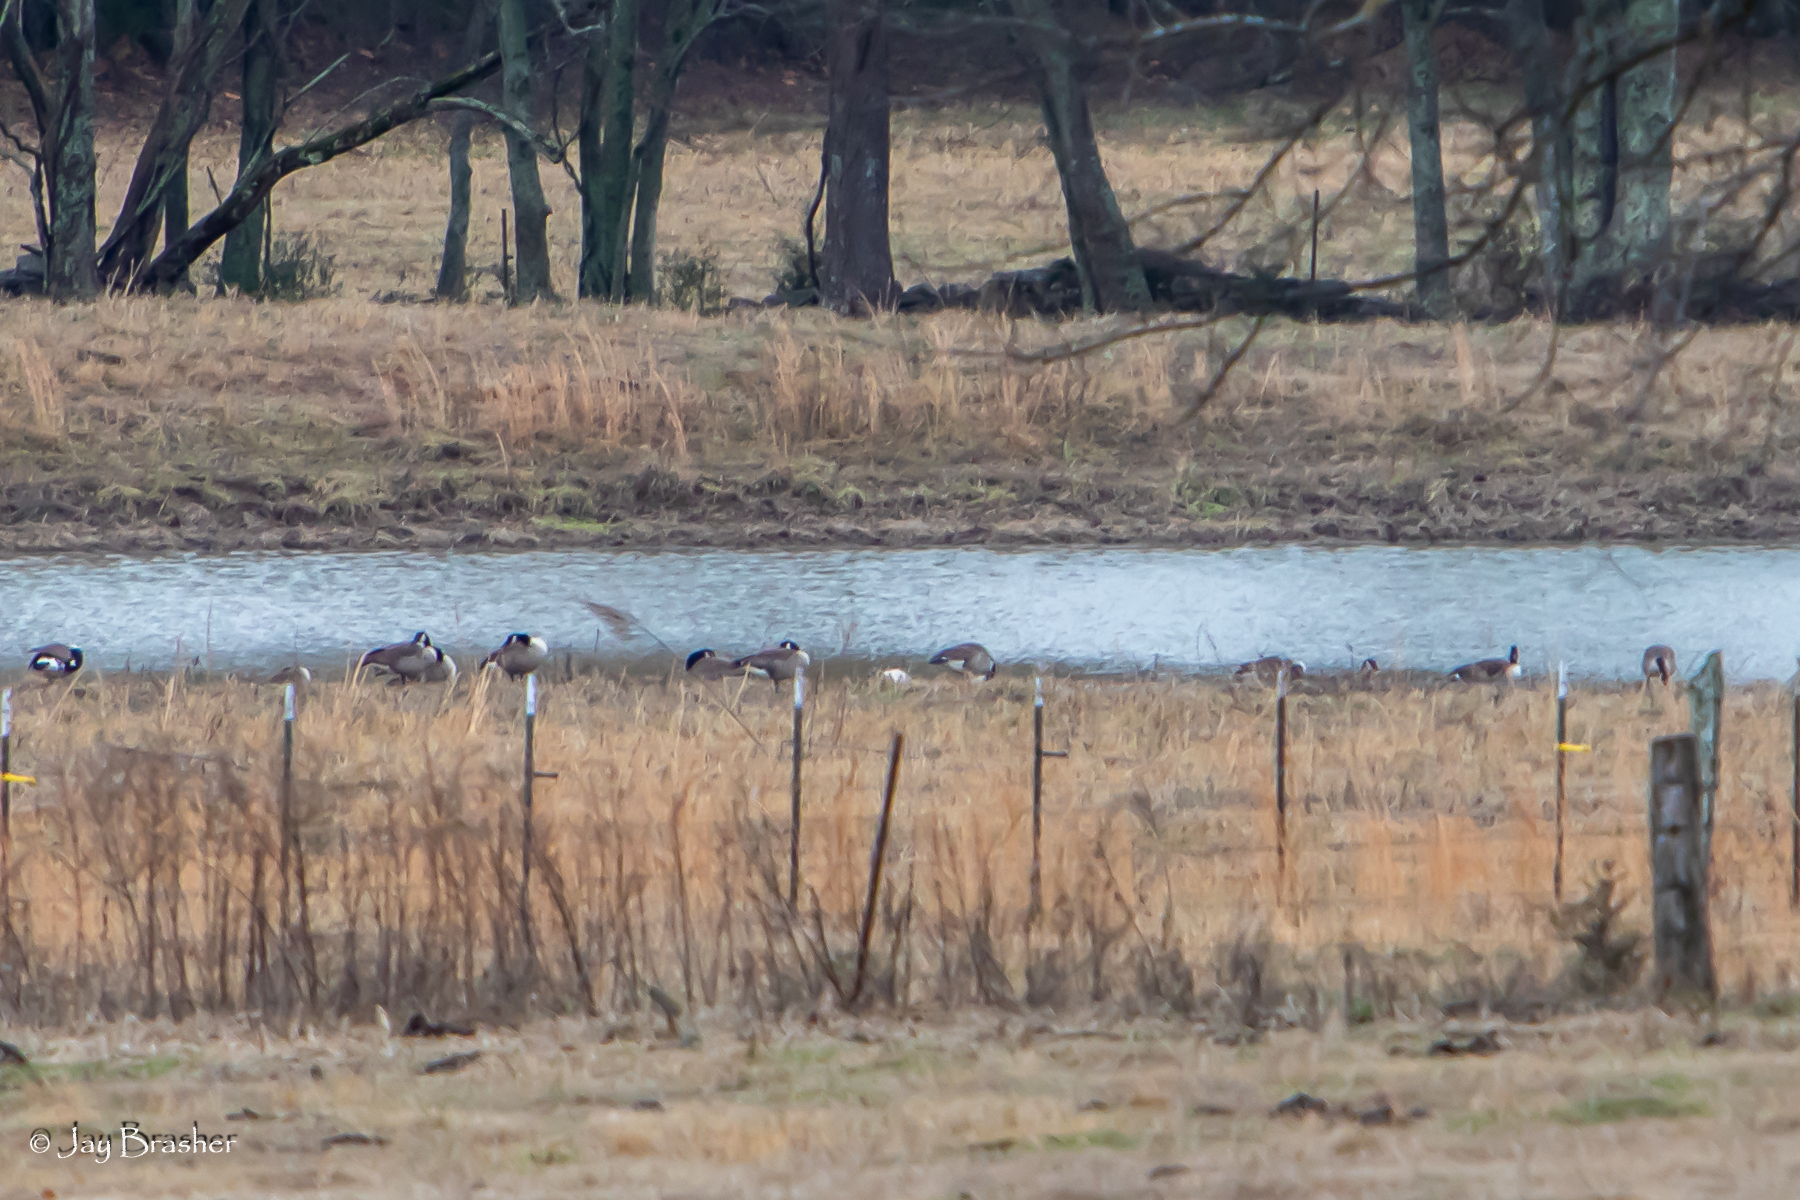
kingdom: Animalia
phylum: Chordata
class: Aves
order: Anseriformes
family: Anatidae
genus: Branta
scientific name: Branta canadensis
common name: Canada goose
